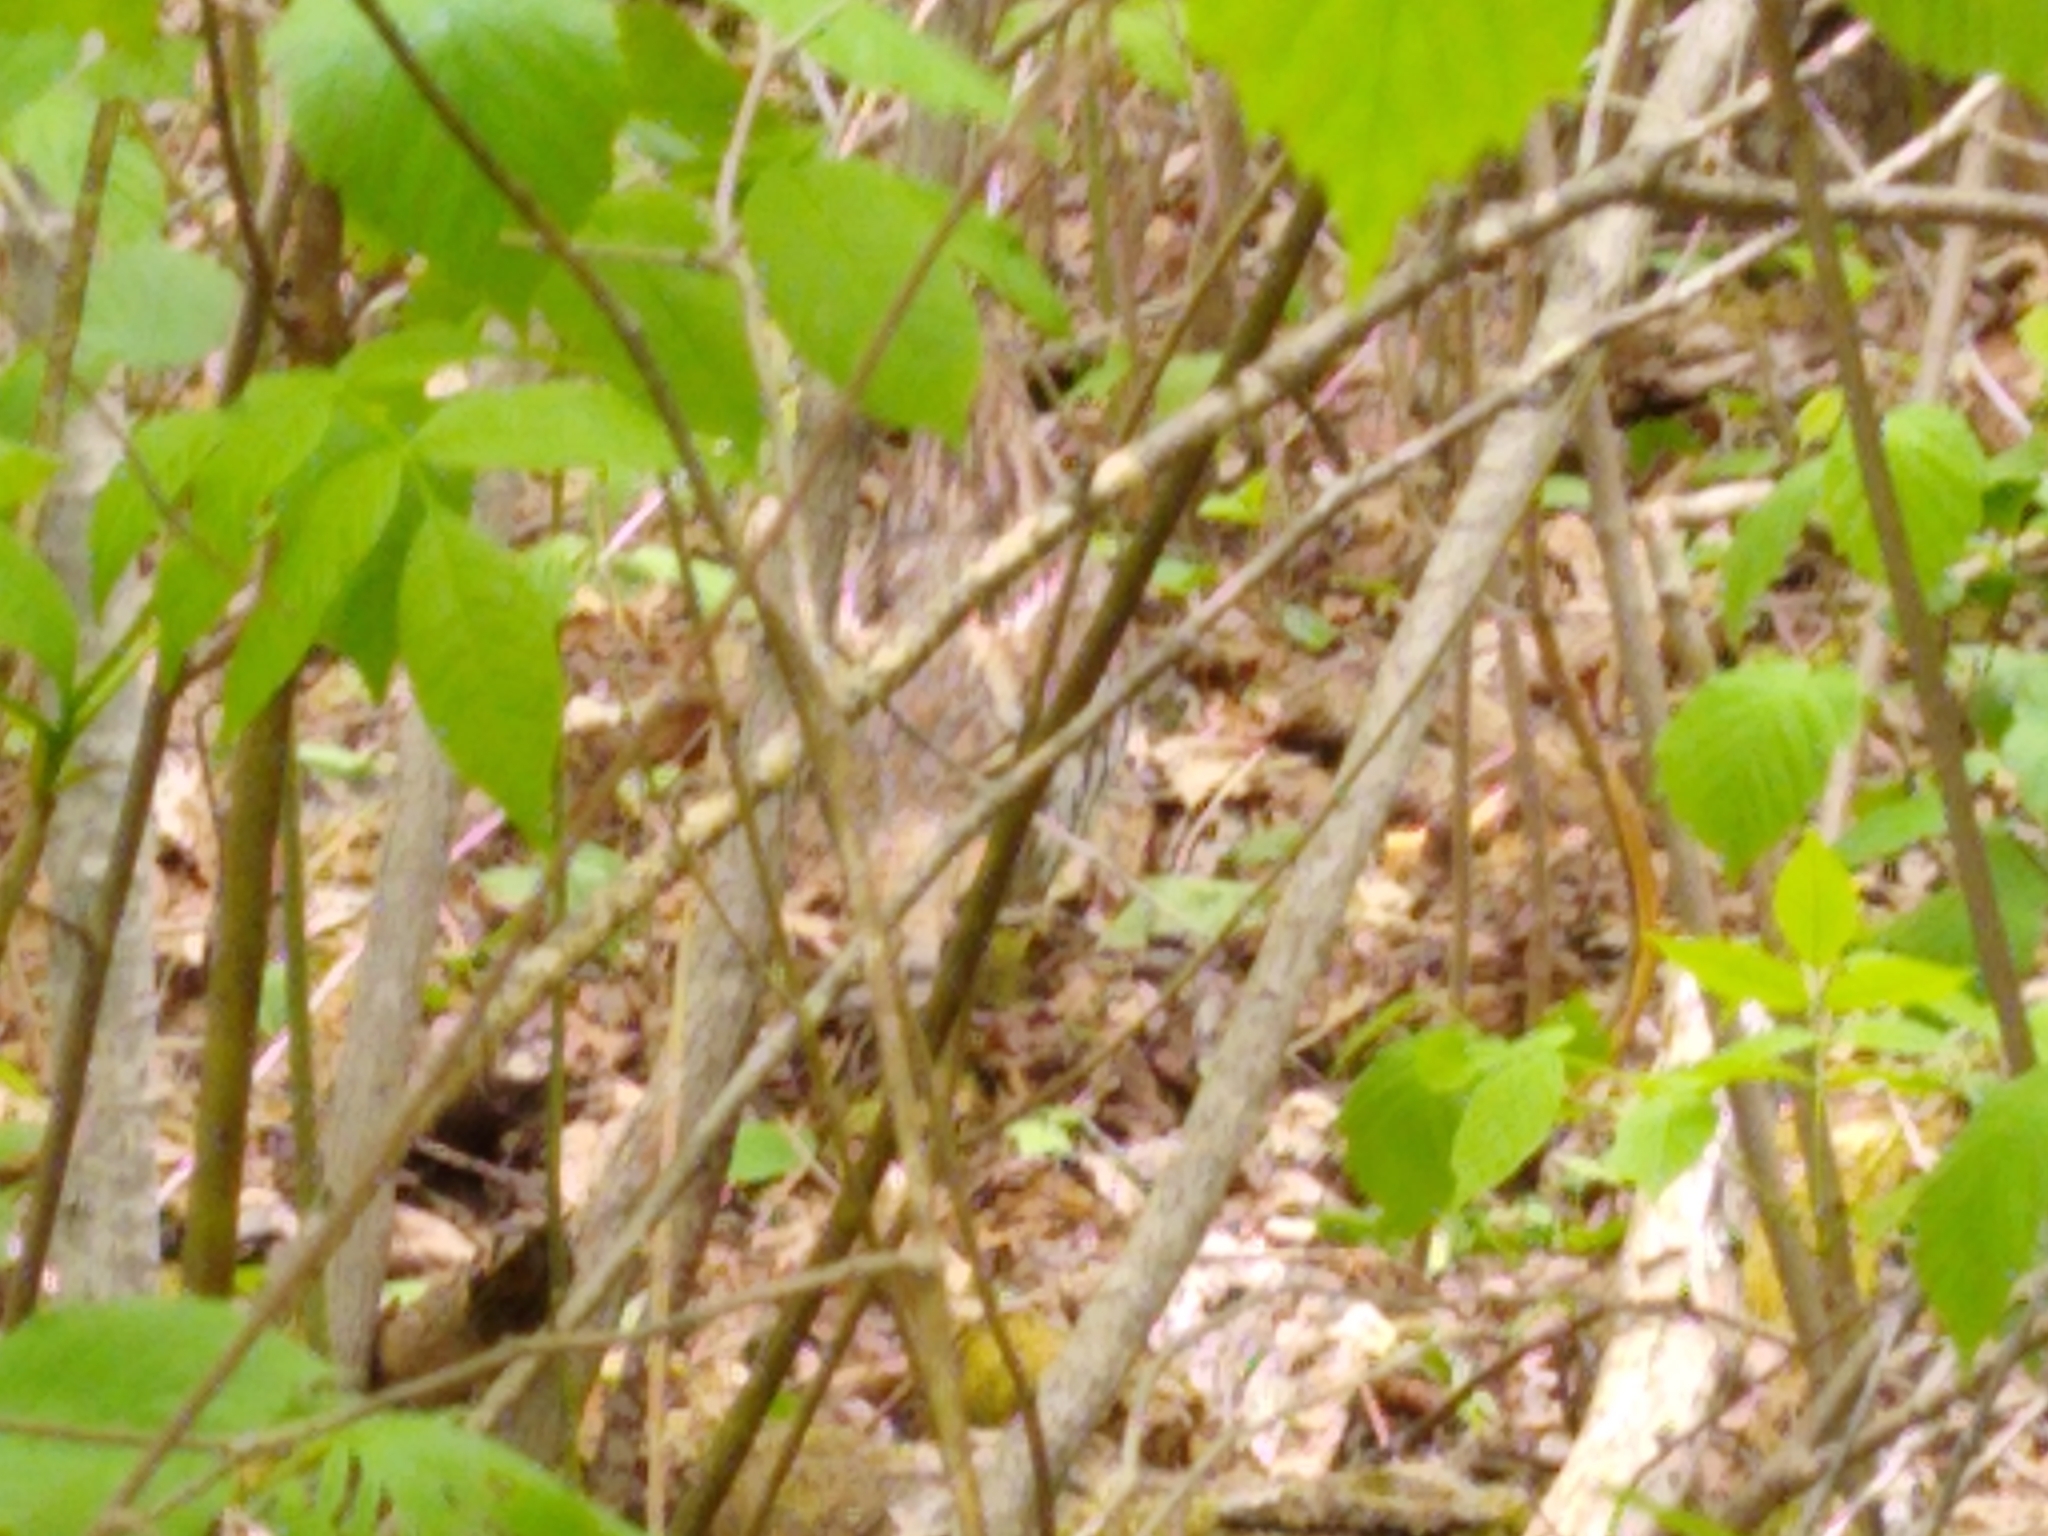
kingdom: Animalia
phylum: Chordata
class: Aves
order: Galliformes
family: Phasianidae
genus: Bonasa
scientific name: Bonasa umbellus
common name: Ruffed grouse
